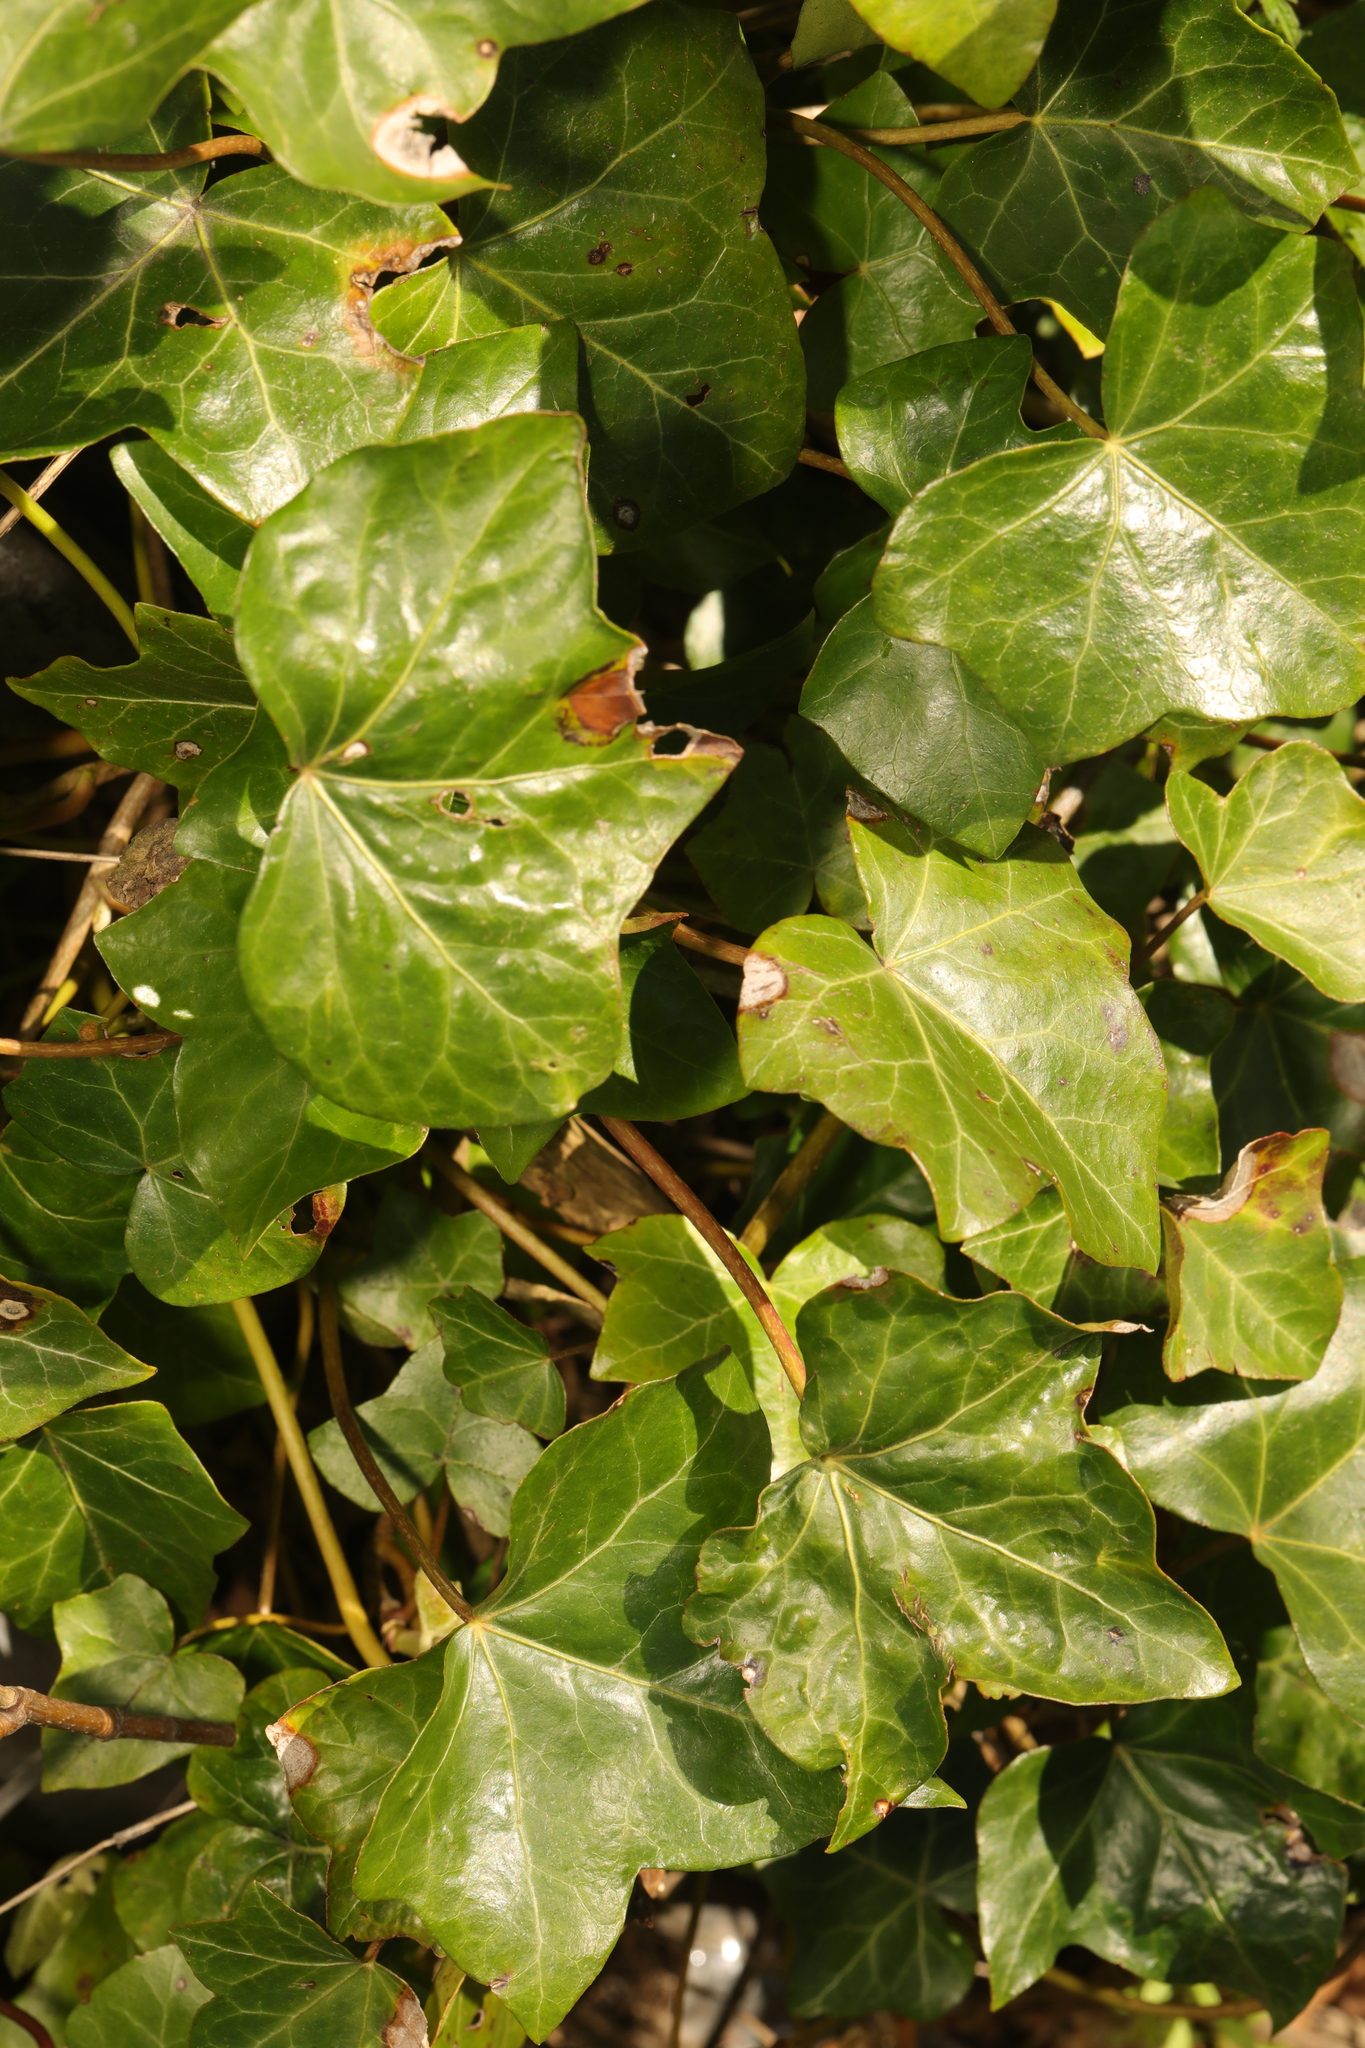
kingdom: Plantae
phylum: Tracheophyta
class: Magnoliopsida
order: Apiales
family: Araliaceae
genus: Hedera
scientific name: Hedera helix
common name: Ivy
